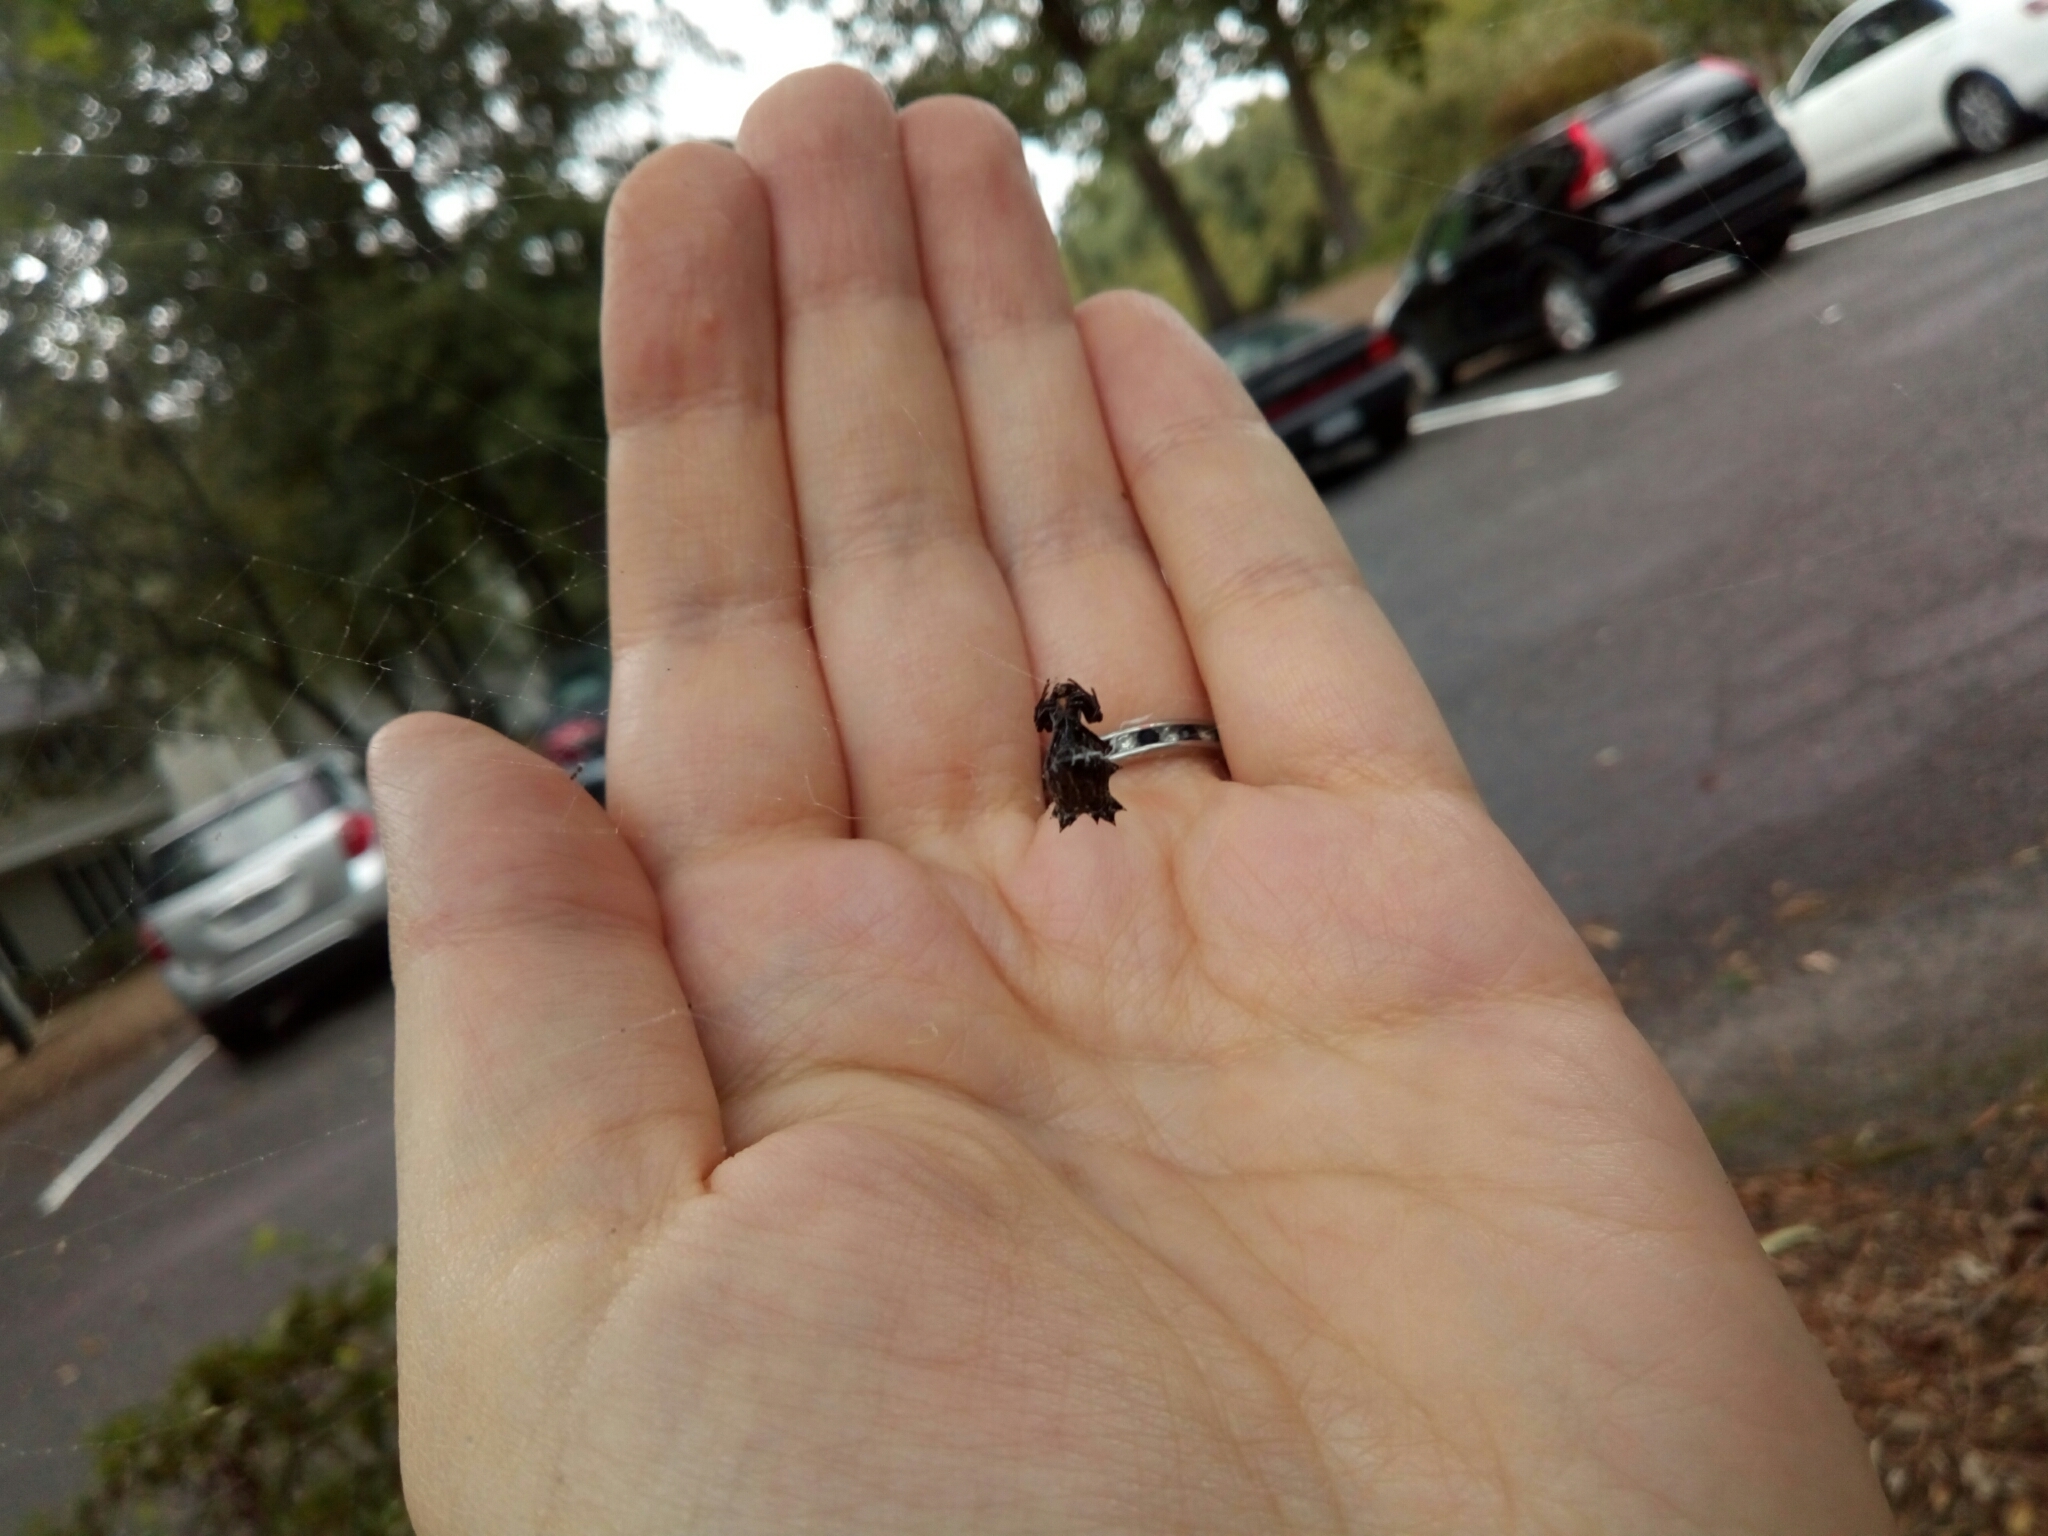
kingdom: Animalia
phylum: Arthropoda
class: Arachnida
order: Araneae
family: Araneidae
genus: Micrathena
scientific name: Micrathena gracilis
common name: Orb weavers
